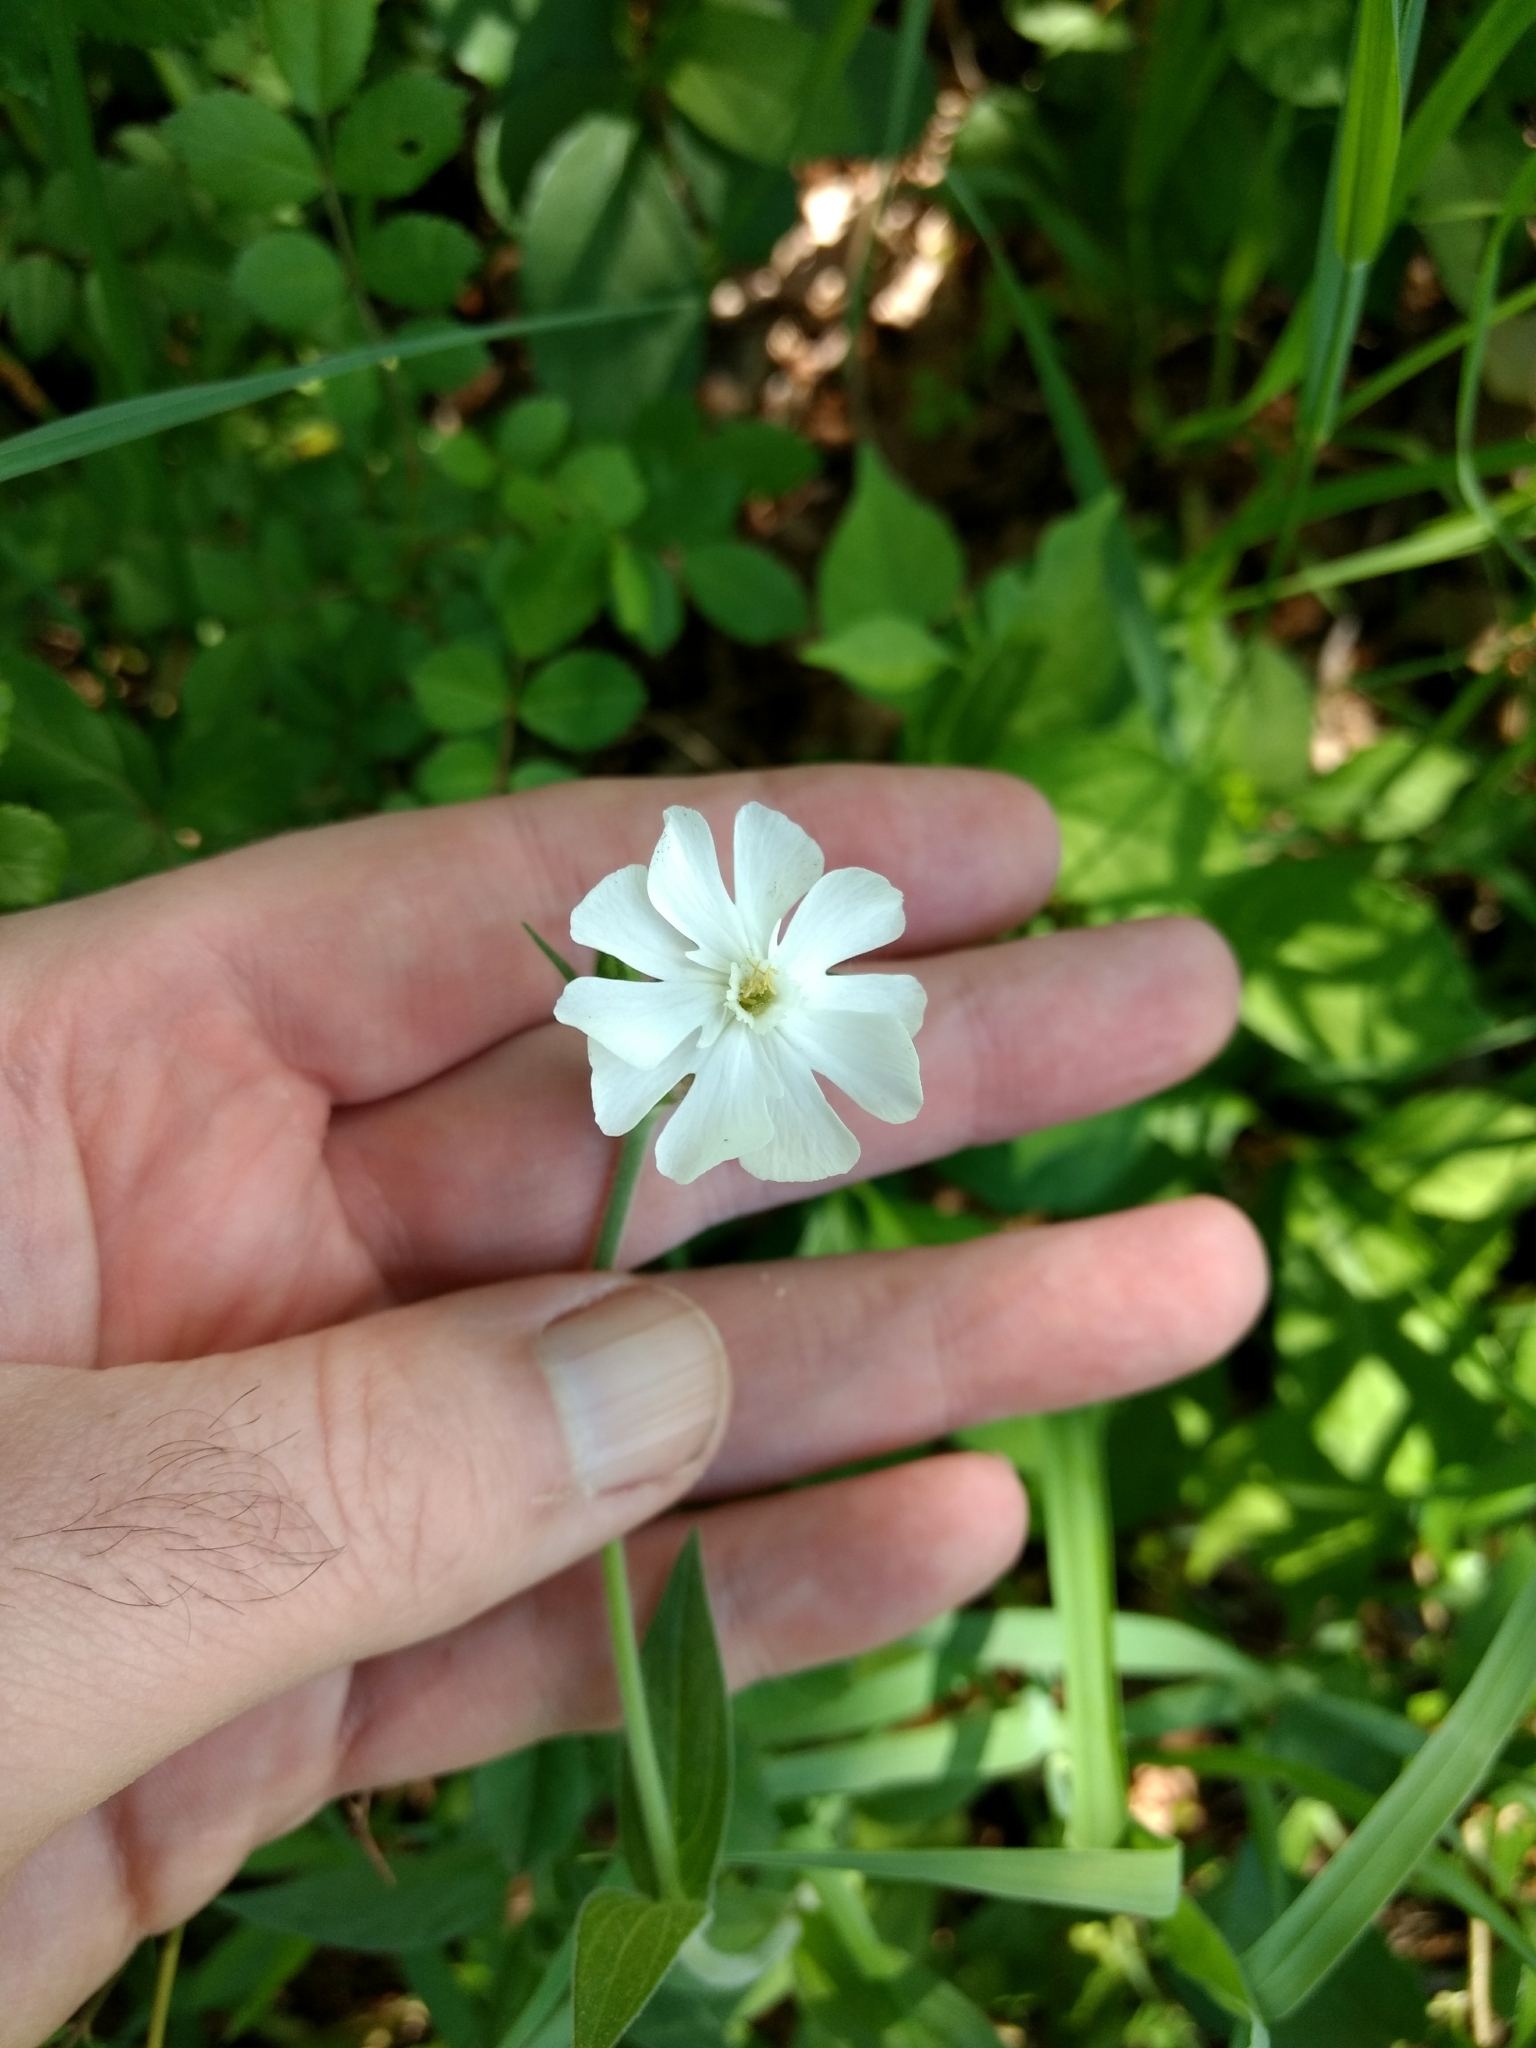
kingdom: Plantae
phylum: Tracheophyta
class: Magnoliopsida
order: Caryophyllales
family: Caryophyllaceae
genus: Silene
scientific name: Silene latifolia
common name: White campion
